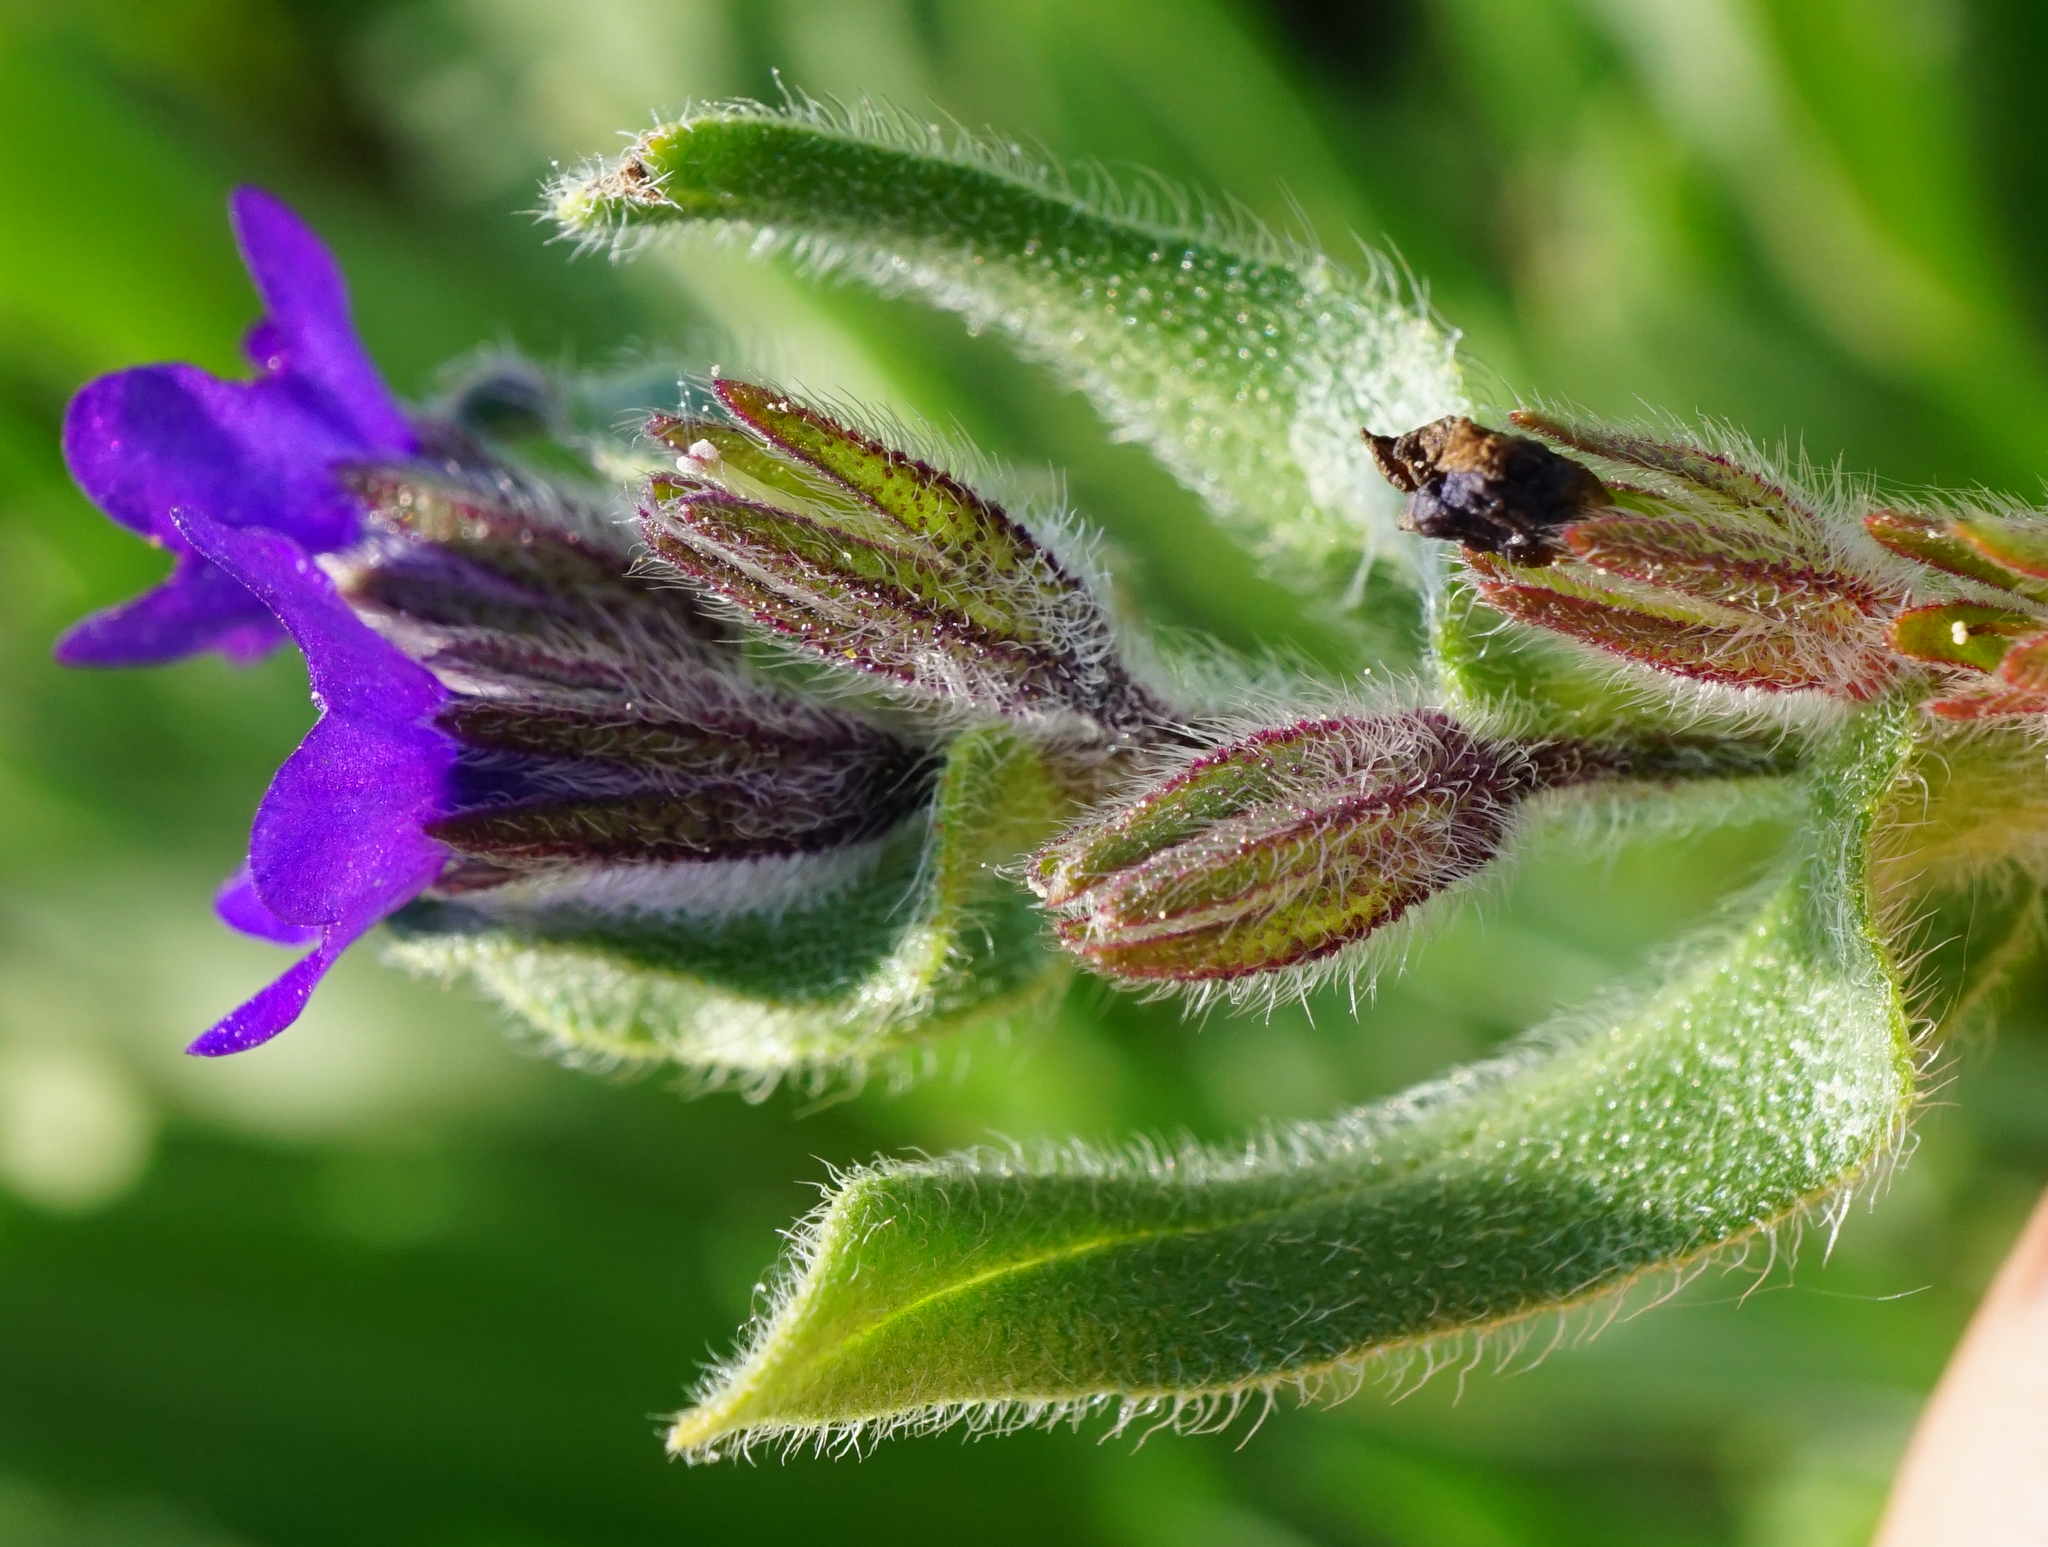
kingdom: Plantae
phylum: Tracheophyta
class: Magnoliopsida
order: Boraginales
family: Boraginaceae
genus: Anchusa
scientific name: Anchusa officinalis
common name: Alkanet
